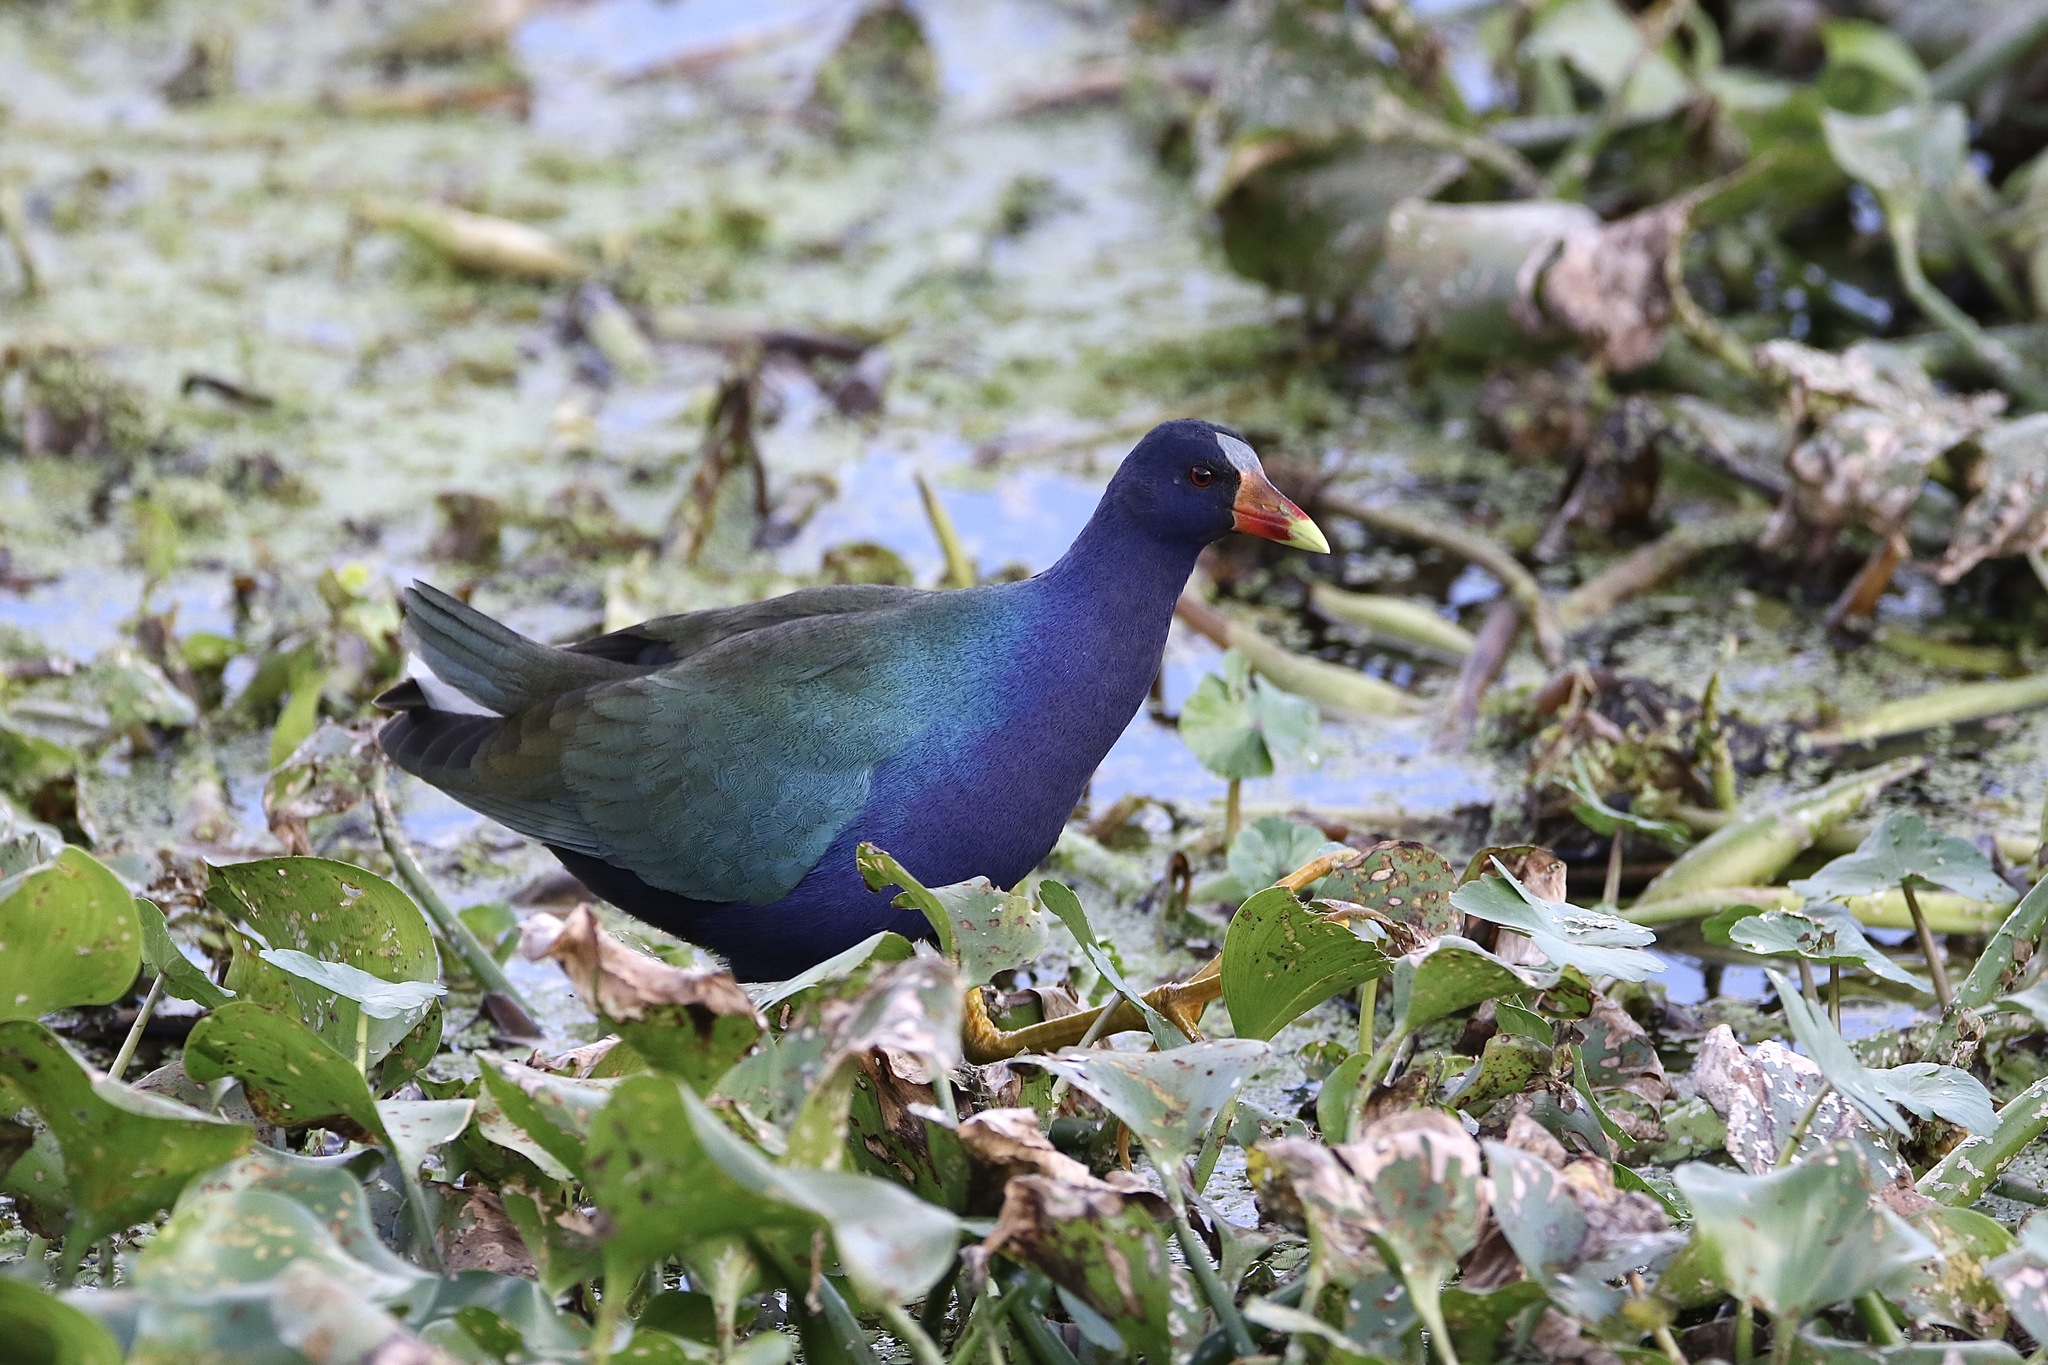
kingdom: Animalia
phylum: Chordata
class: Aves
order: Gruiformes
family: Rallidae
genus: Porphyrio
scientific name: Porphyrio martinica
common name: Purple gallinule
